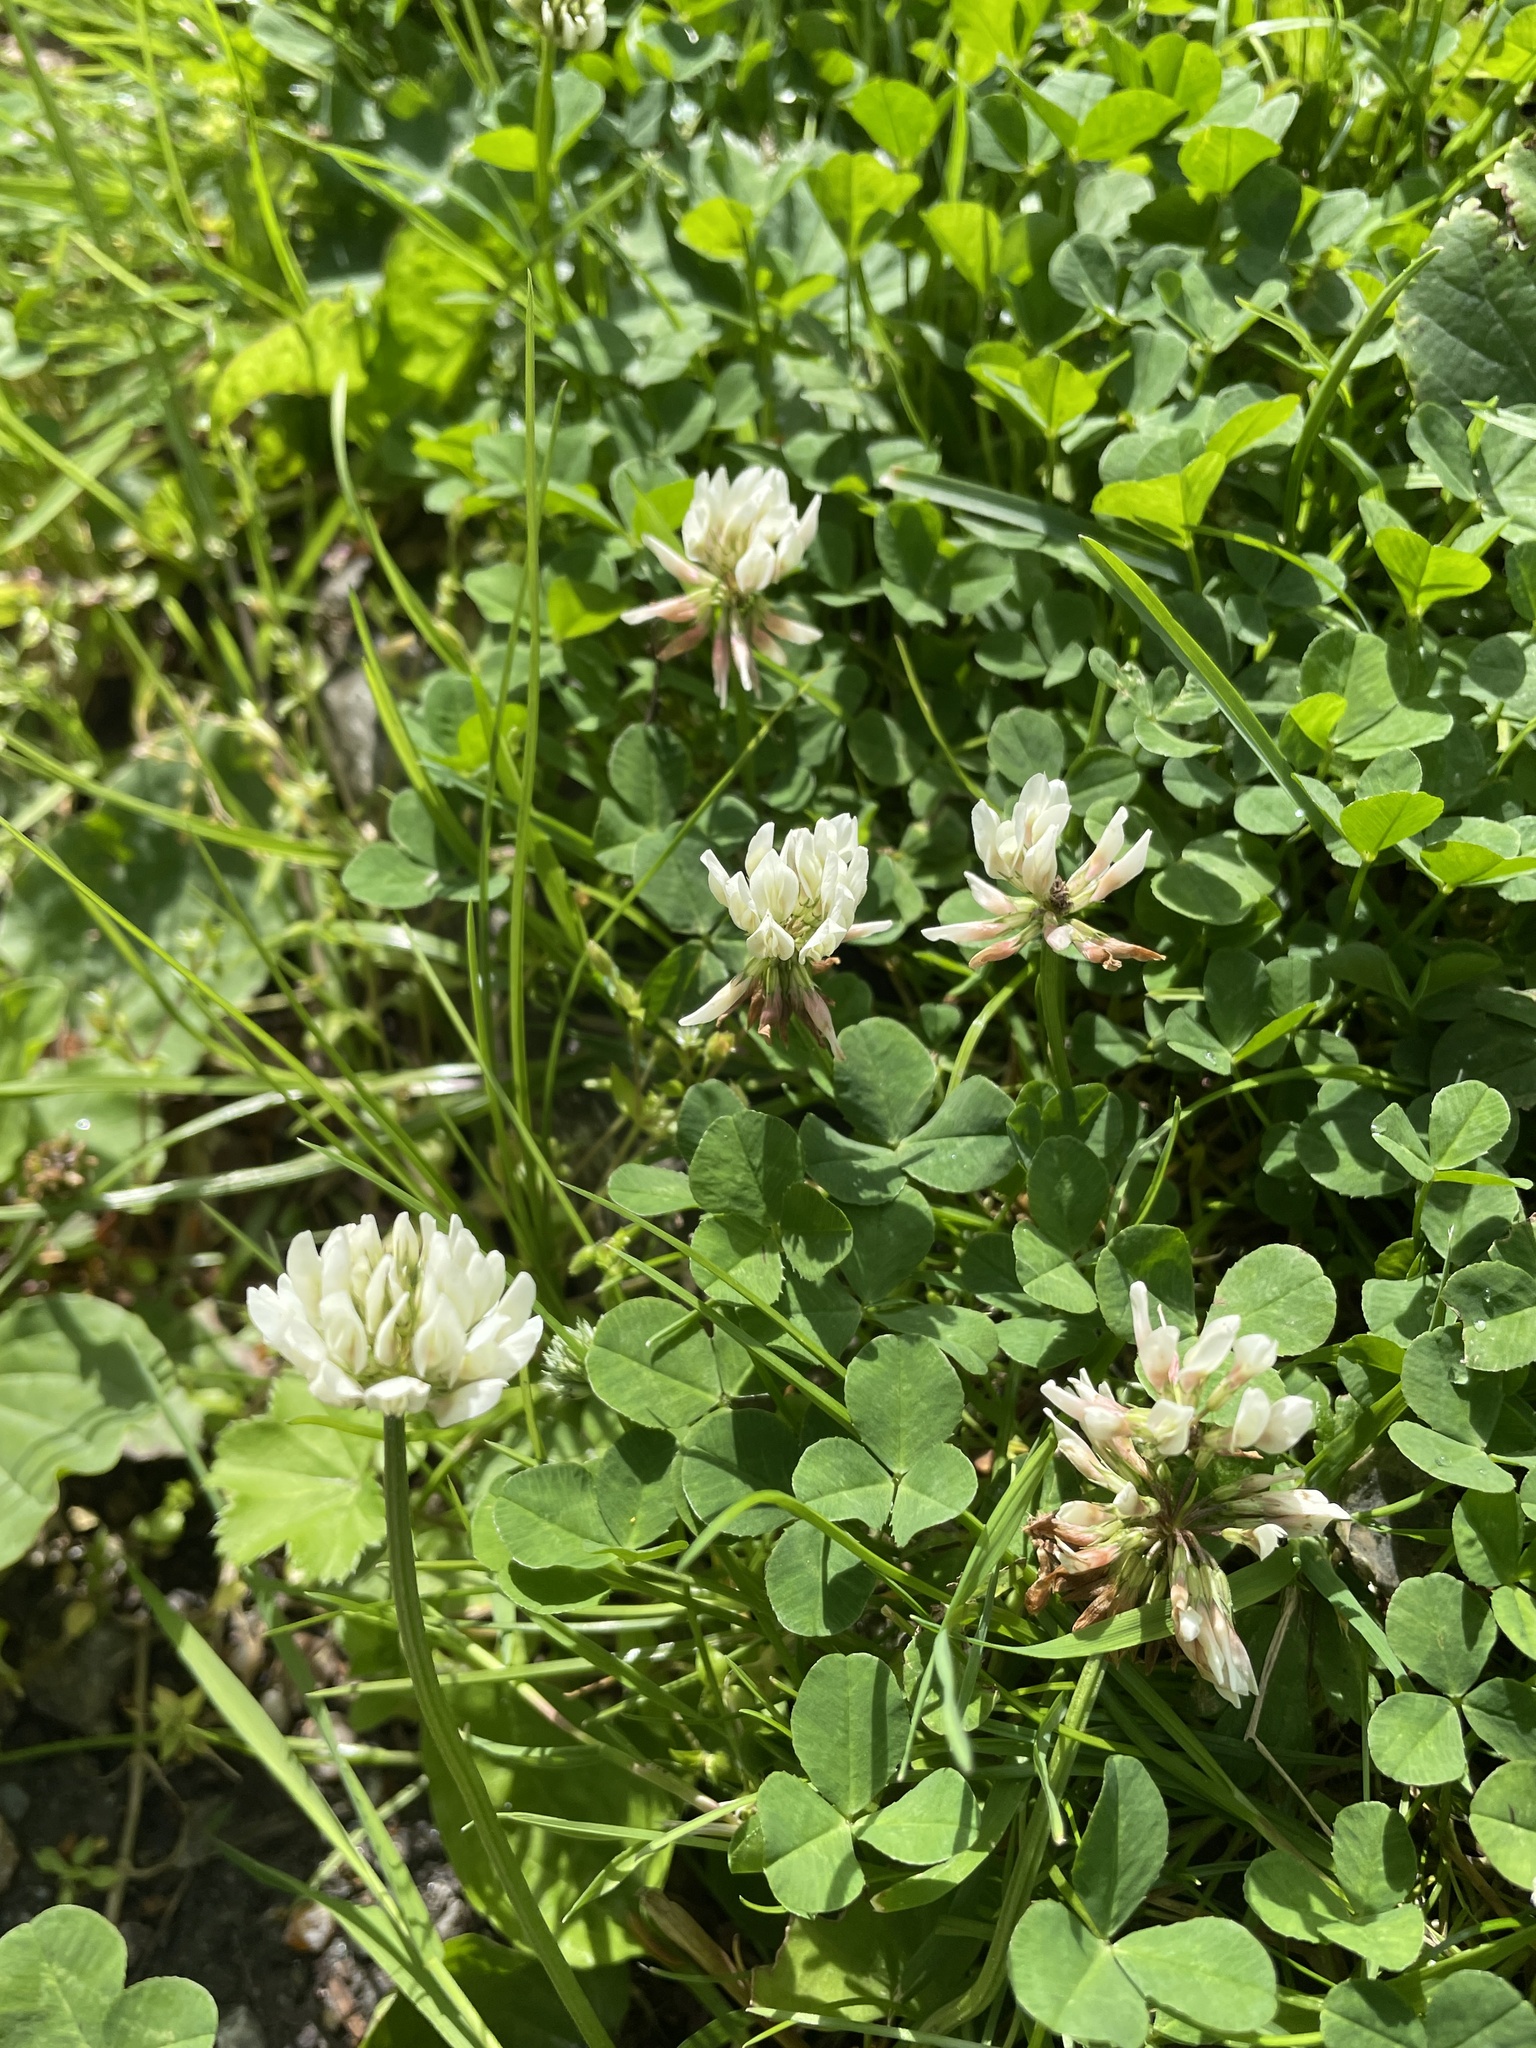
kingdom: Plantae
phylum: Tracheophyta
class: Magnoliopsida
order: Fabales
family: Fabaceae
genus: Trifolium
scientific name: Trifolium repens
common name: White clover
